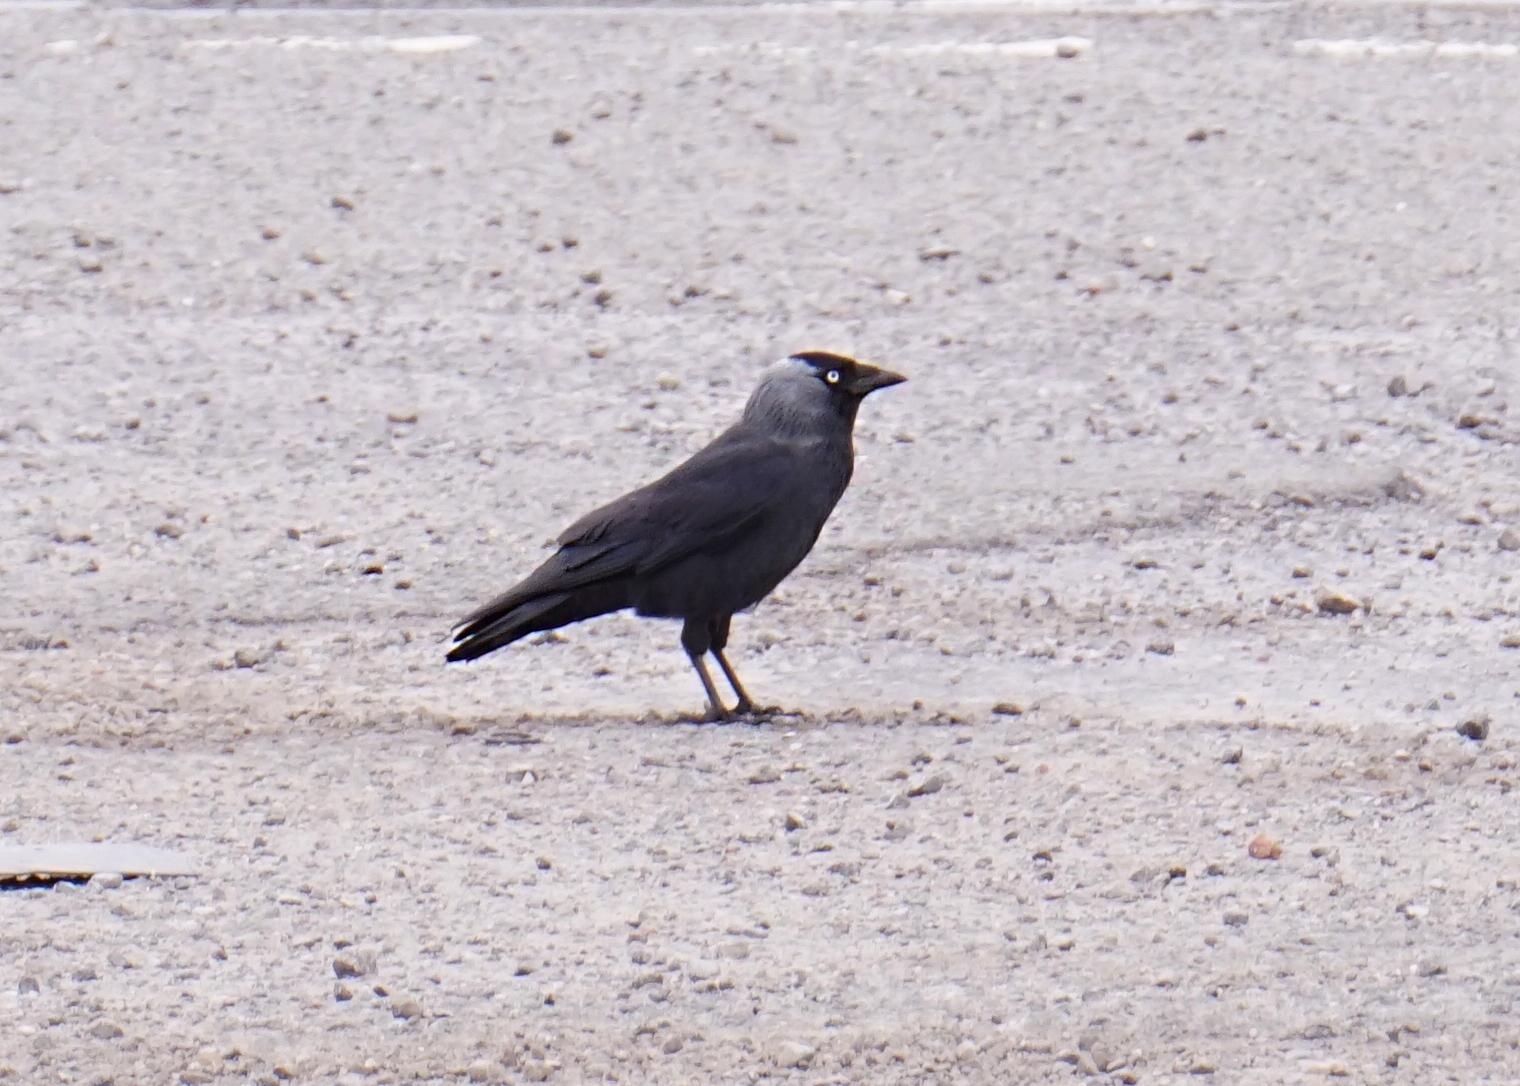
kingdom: Animalia
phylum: Chordata
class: Aves
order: Passeriformes
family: Corvidae
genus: Coloeus
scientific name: Coloeus monedula
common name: Western jackdaw
